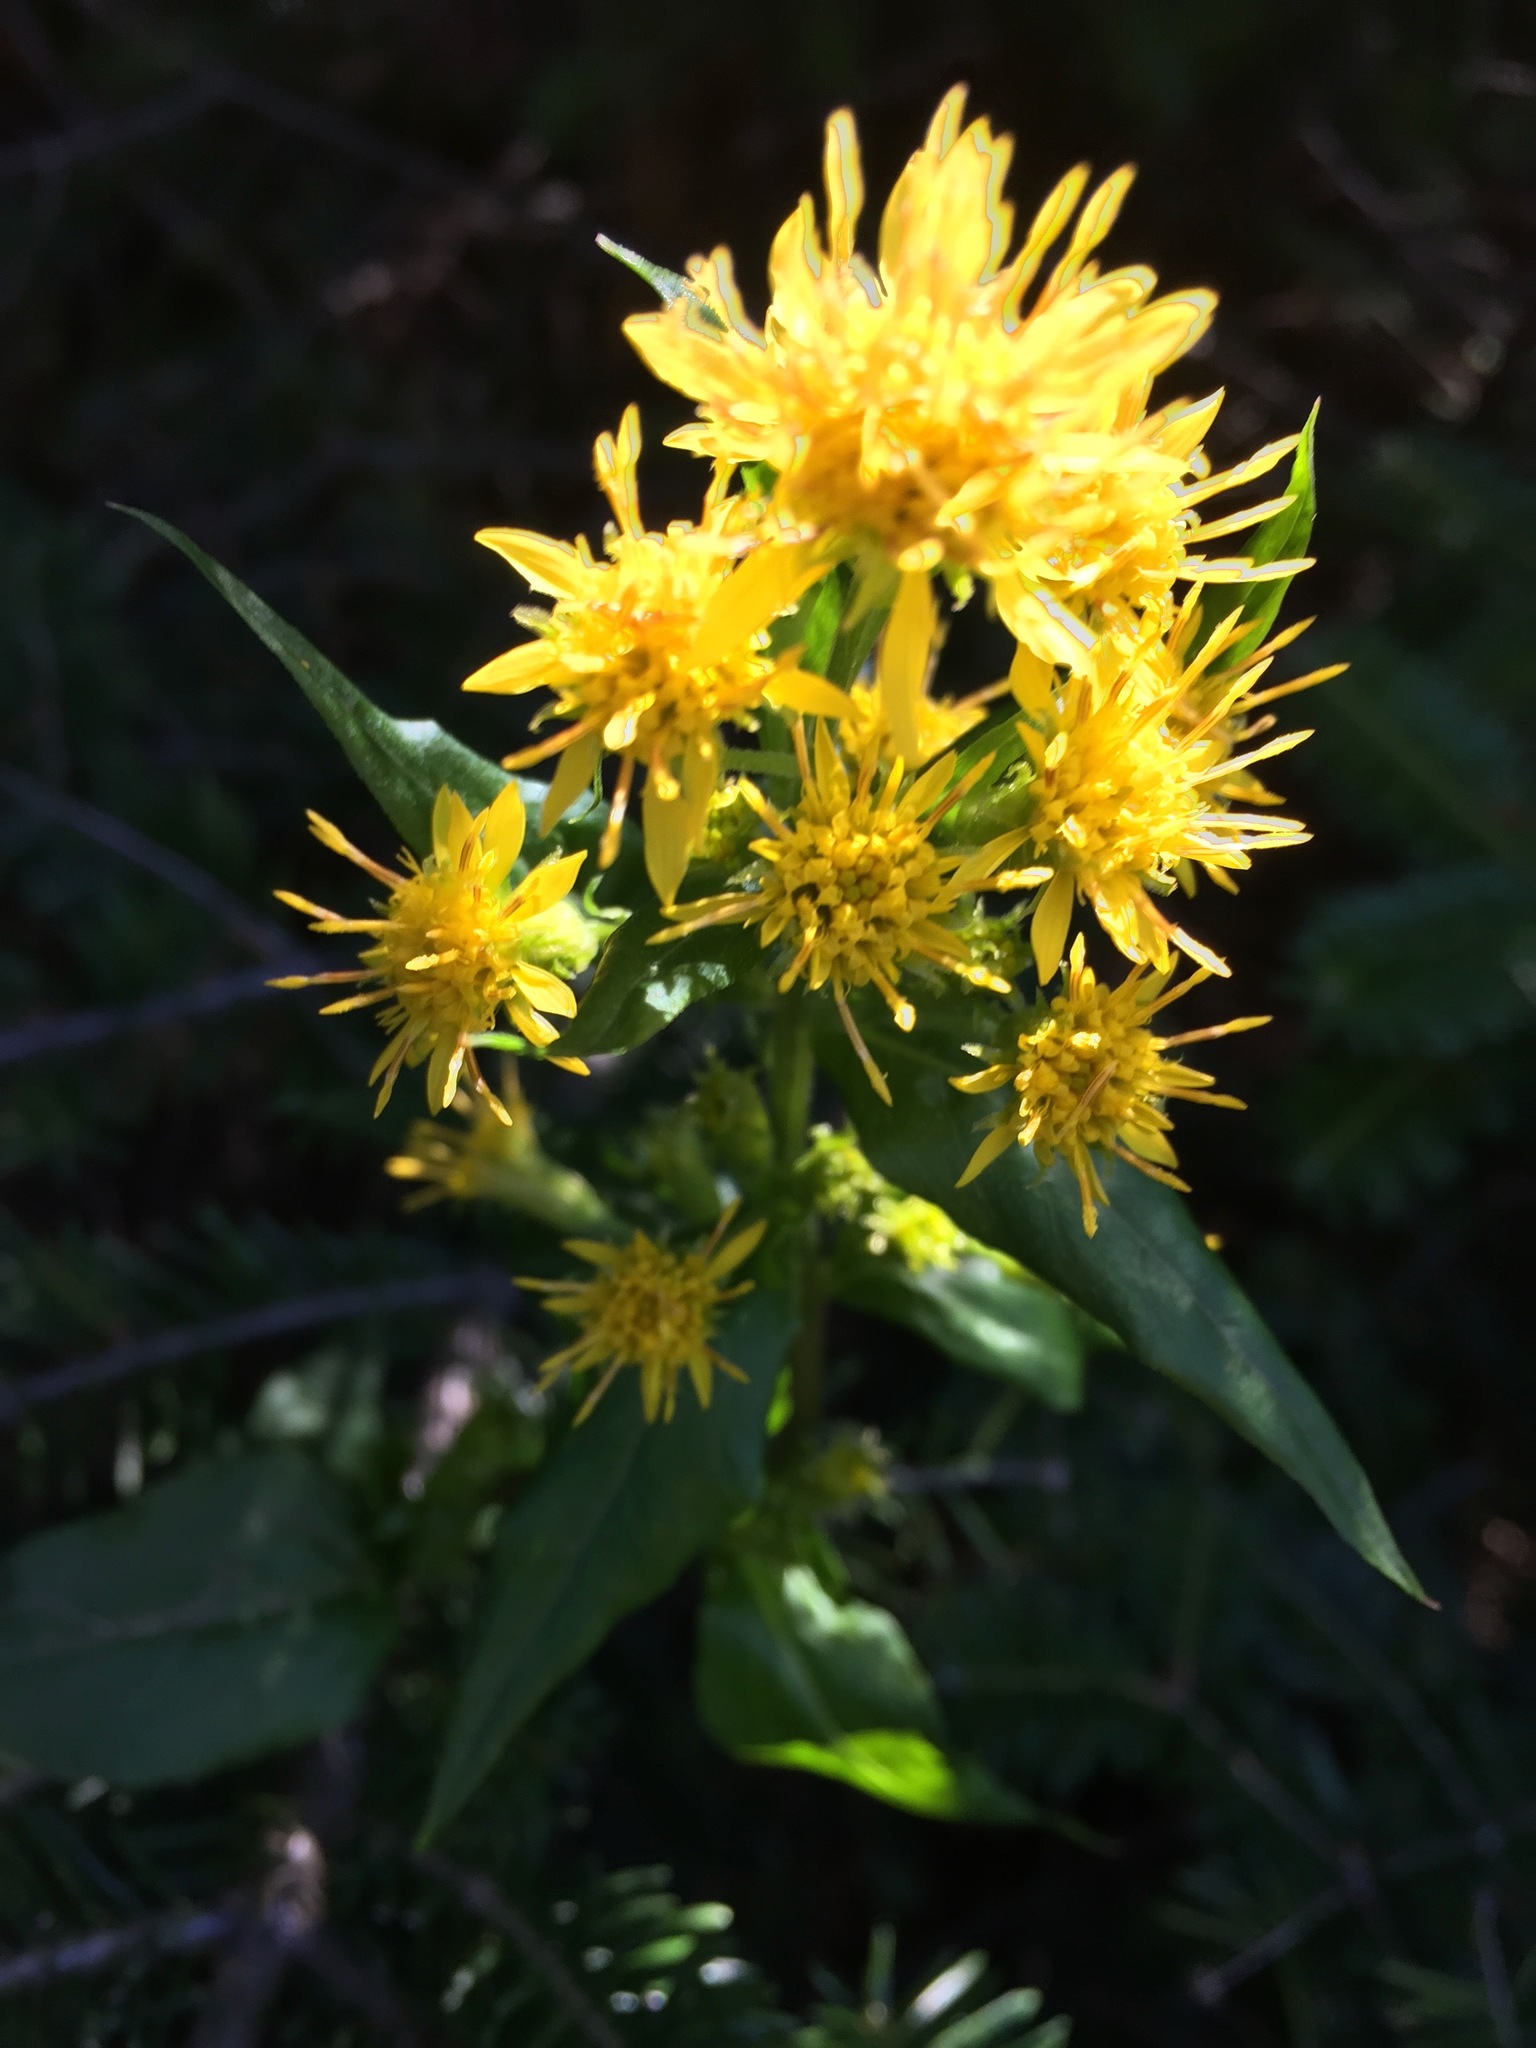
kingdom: Plantae
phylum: Tracheophyta
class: Magnoliopsida
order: Asterales
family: Asteraceae
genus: Solidago
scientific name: Solidago macrophylla
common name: Large-leaved goldenrod
